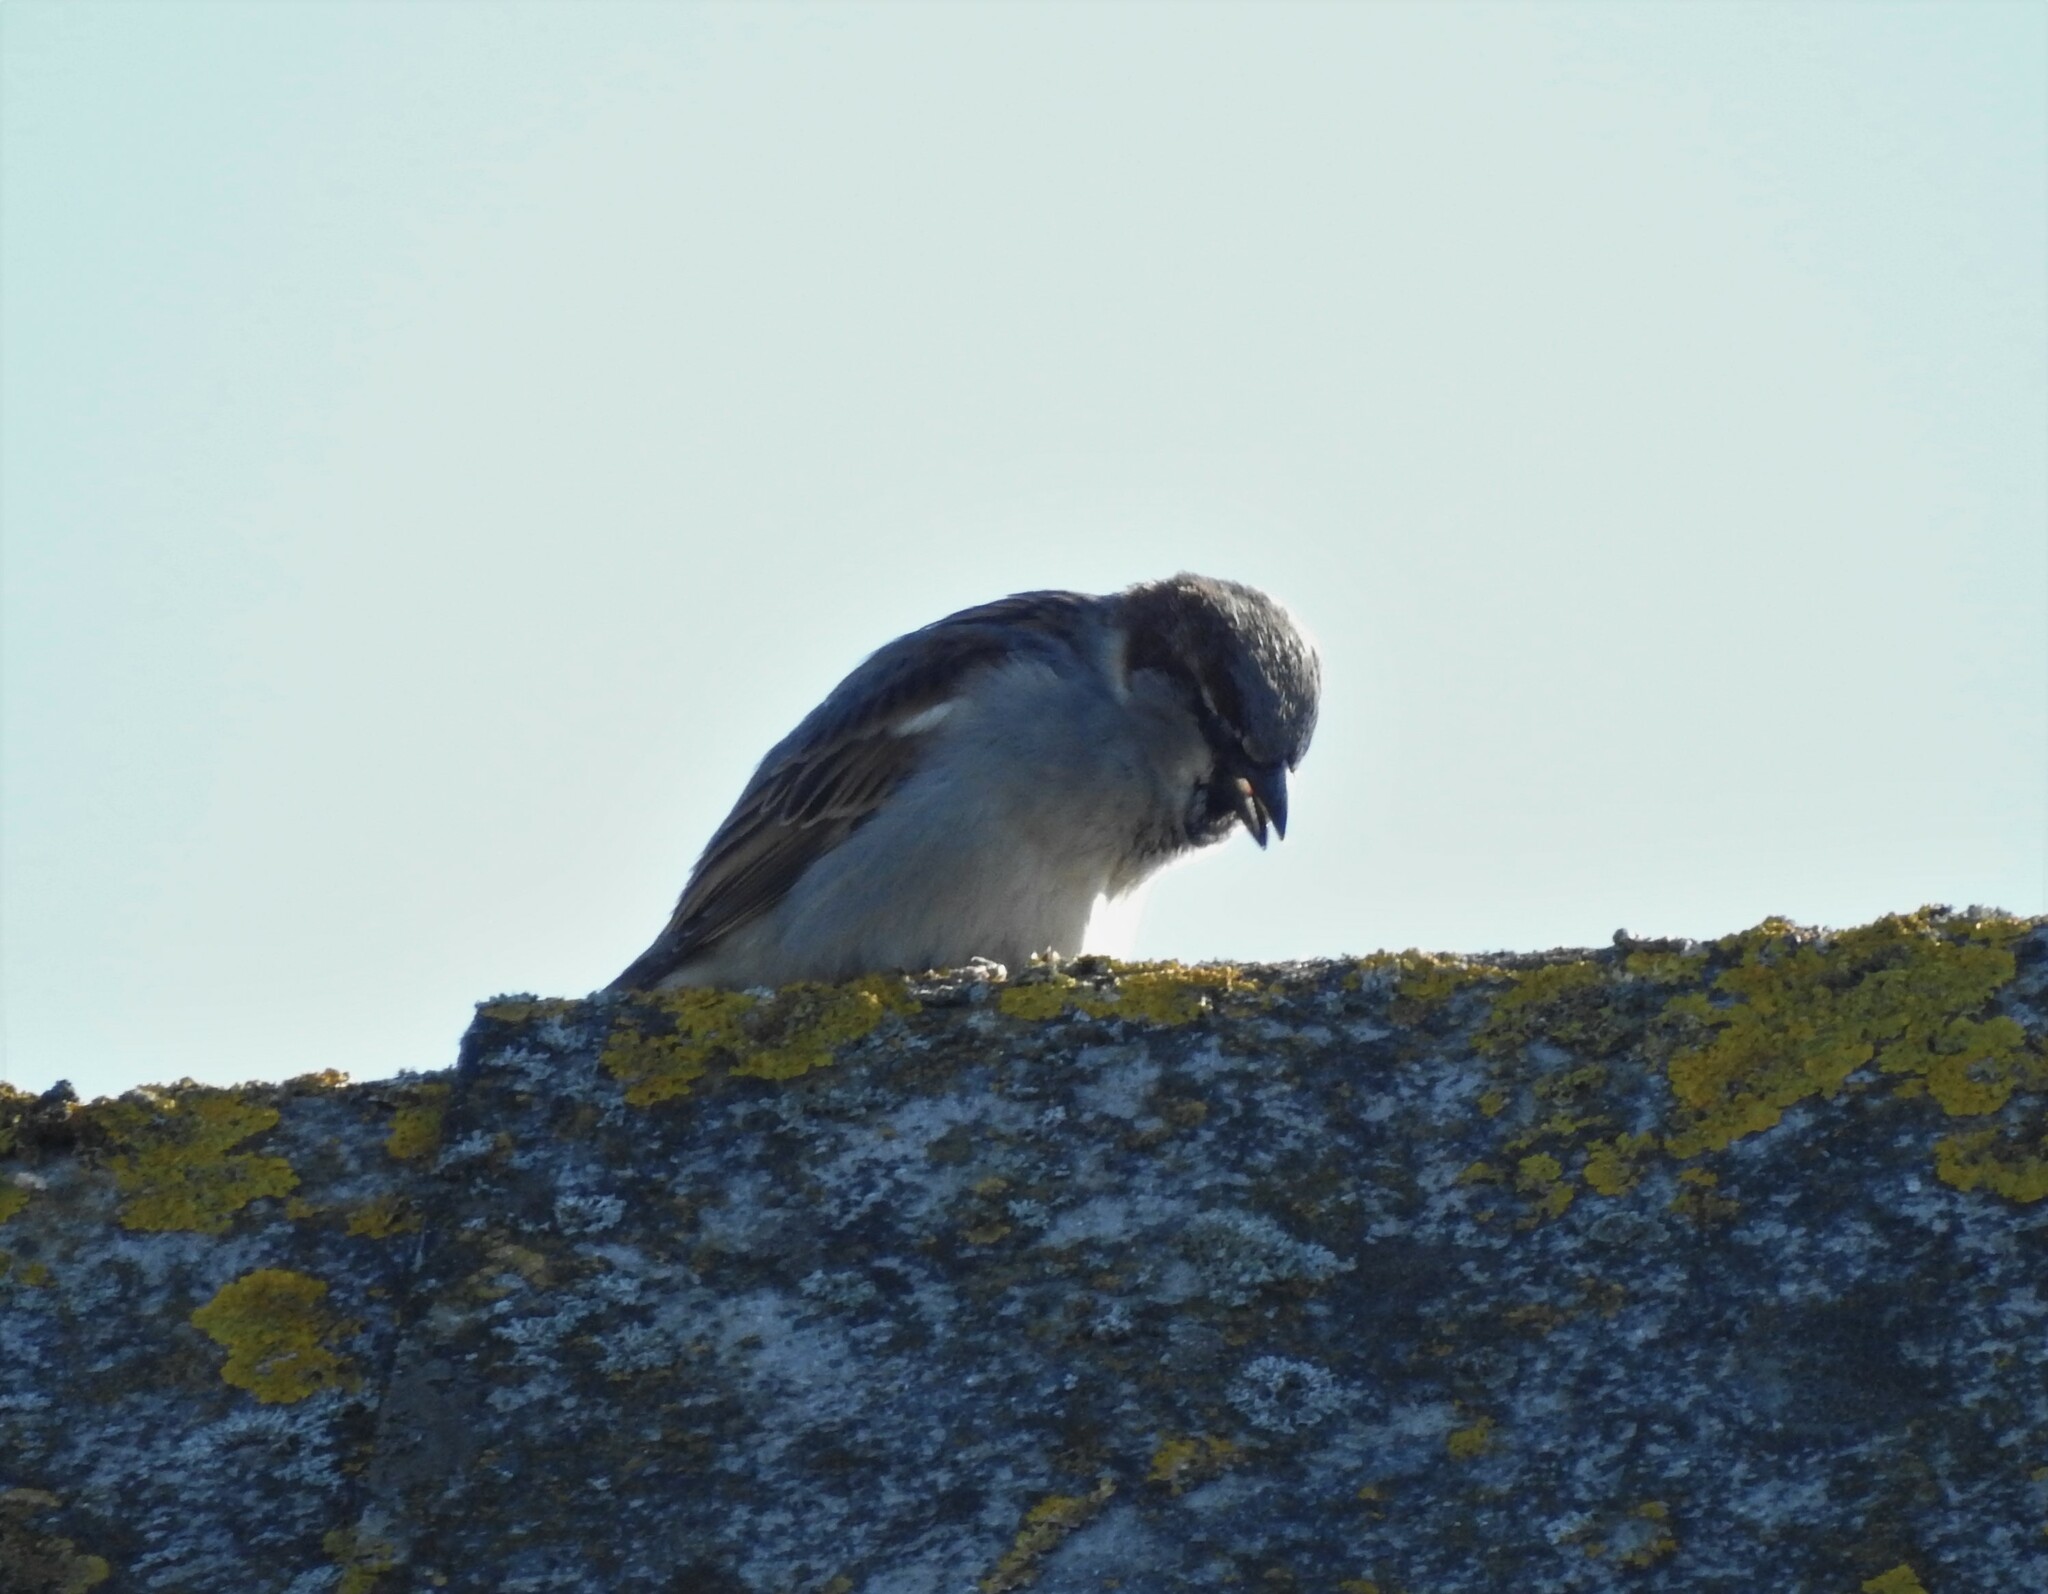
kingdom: Animalia
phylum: Chordata
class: Aves
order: Passeriformes
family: Passeridae
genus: Passer
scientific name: Passer domesticus
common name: House sparrow
